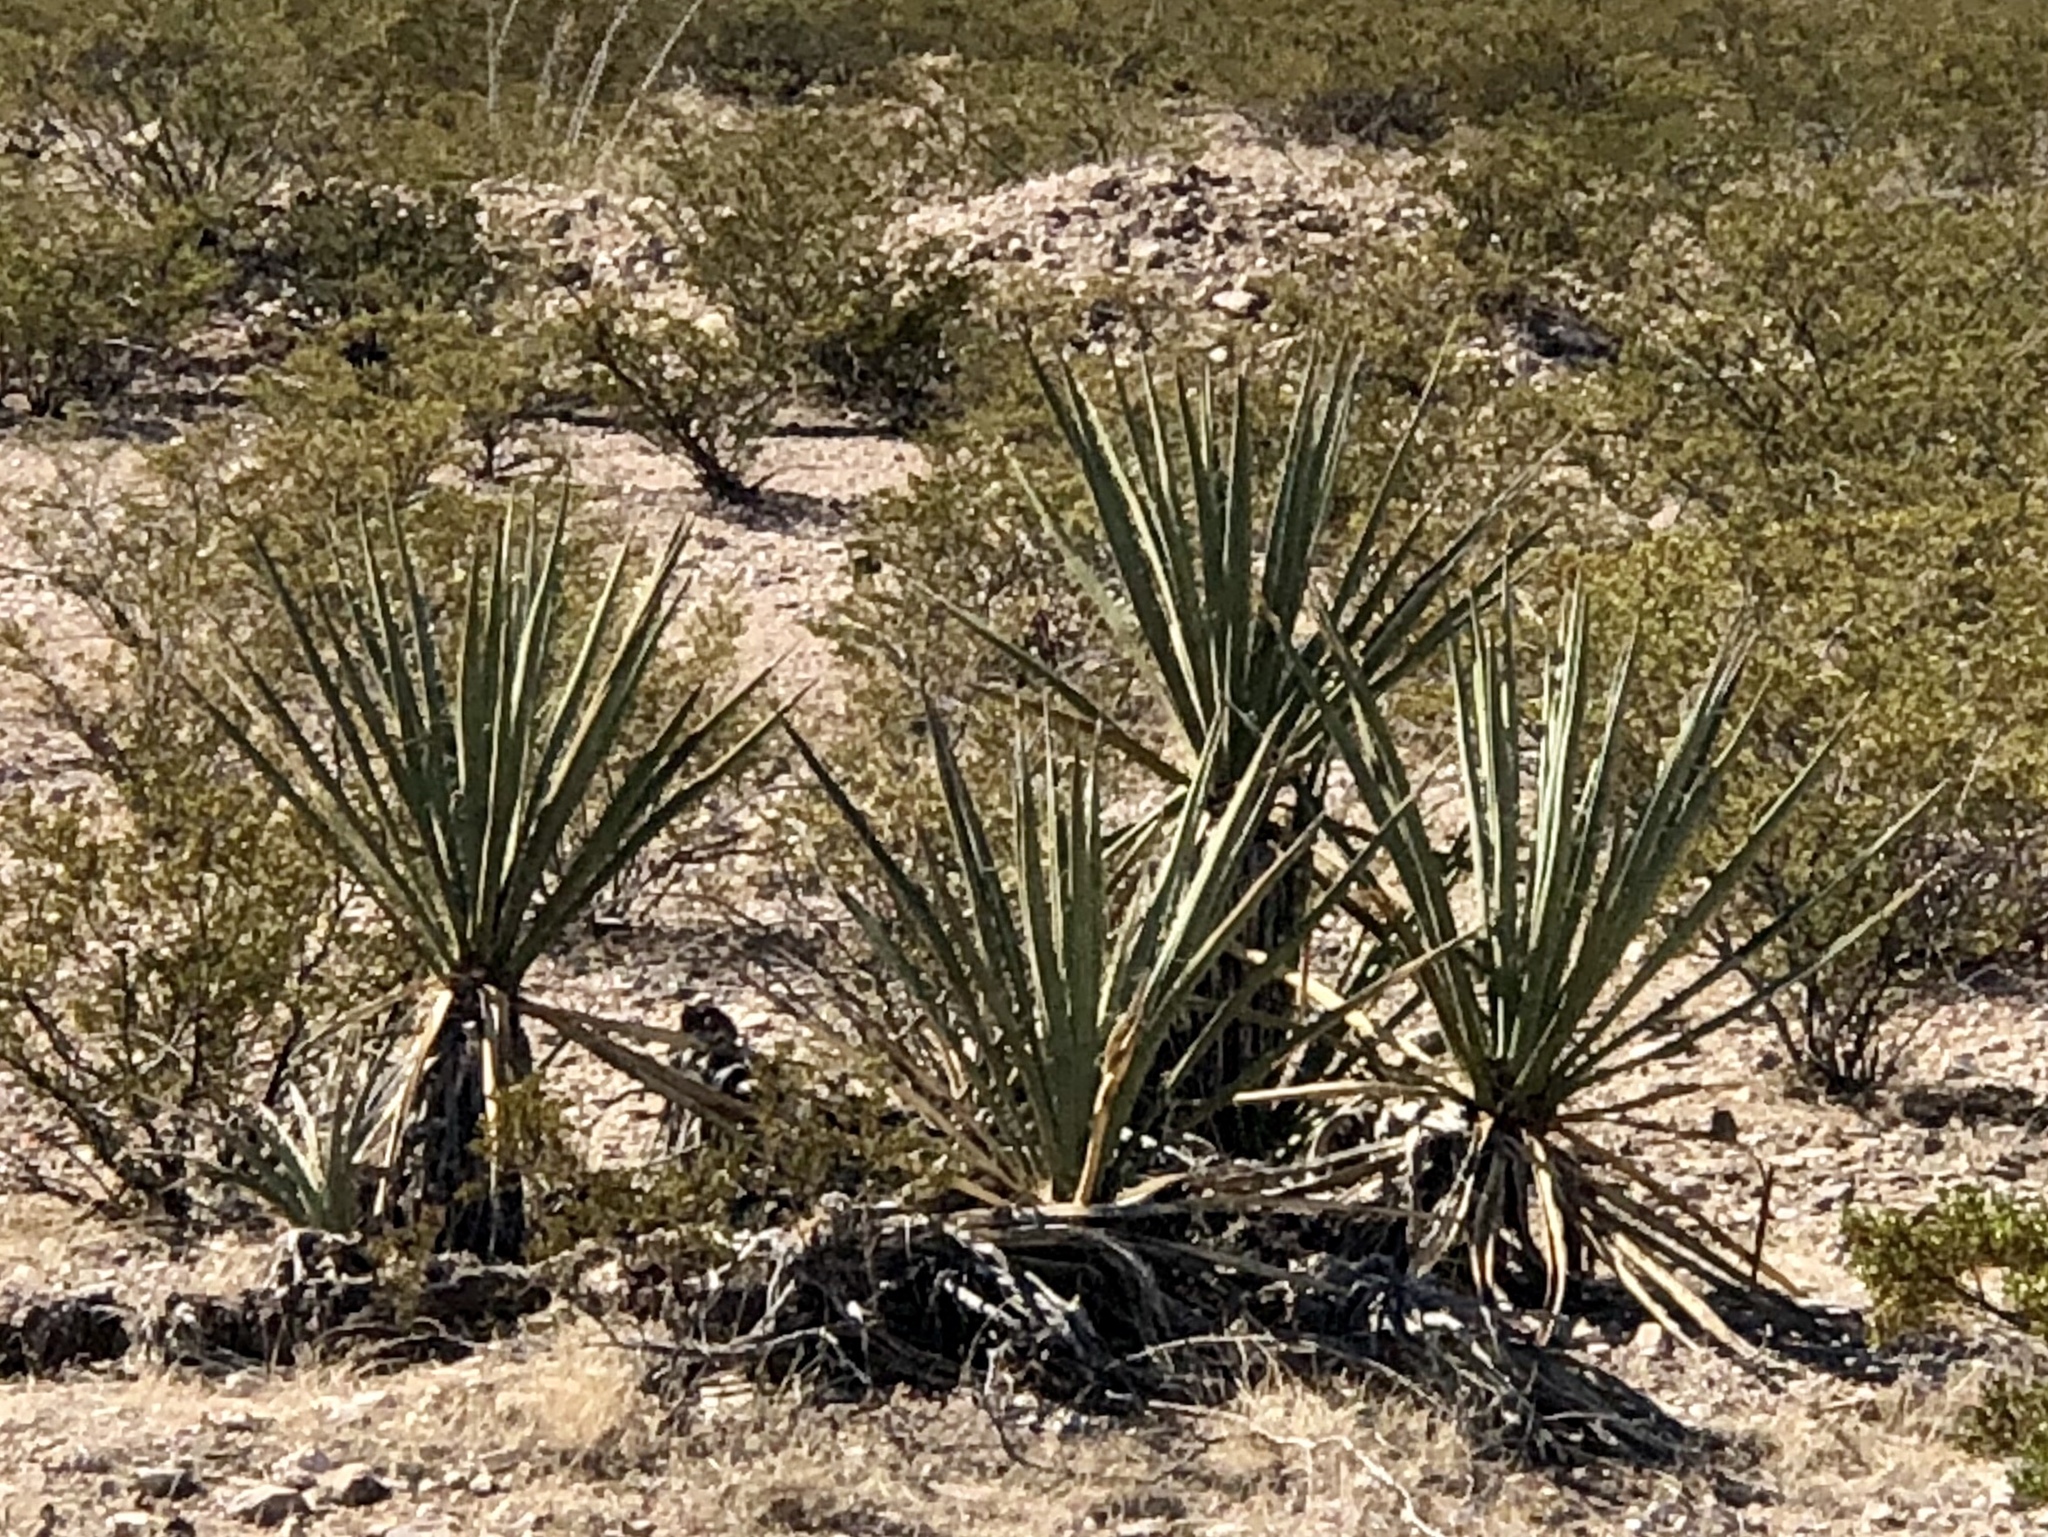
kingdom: Plantae
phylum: Tracheophyta
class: Liliopsida
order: Asparagales
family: Asparagaceae
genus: Yucca
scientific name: Yucca baccata
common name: Banana yucca
